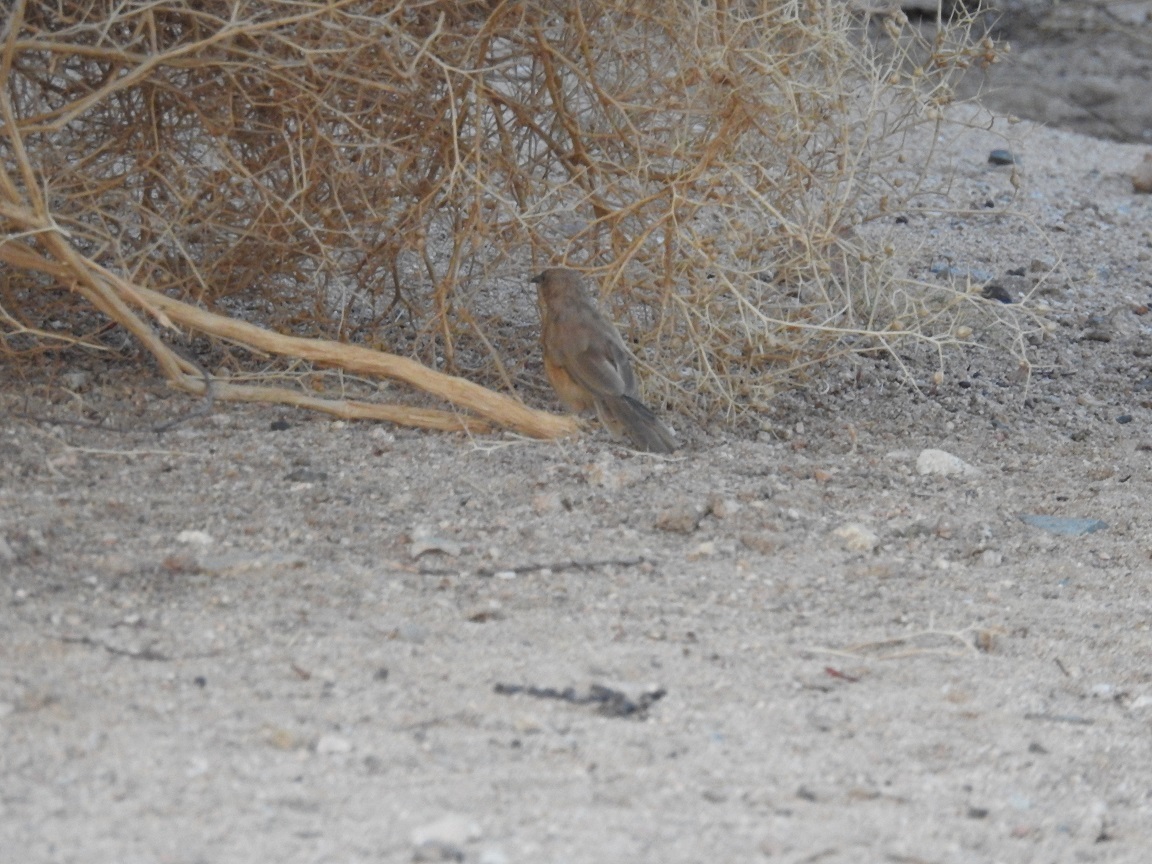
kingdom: Animalia
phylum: Chordata
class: Aves
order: Passeriformes
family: Leiothrichidae
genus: Turdoides
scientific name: Turdoides fulva
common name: Fulvous babbler
